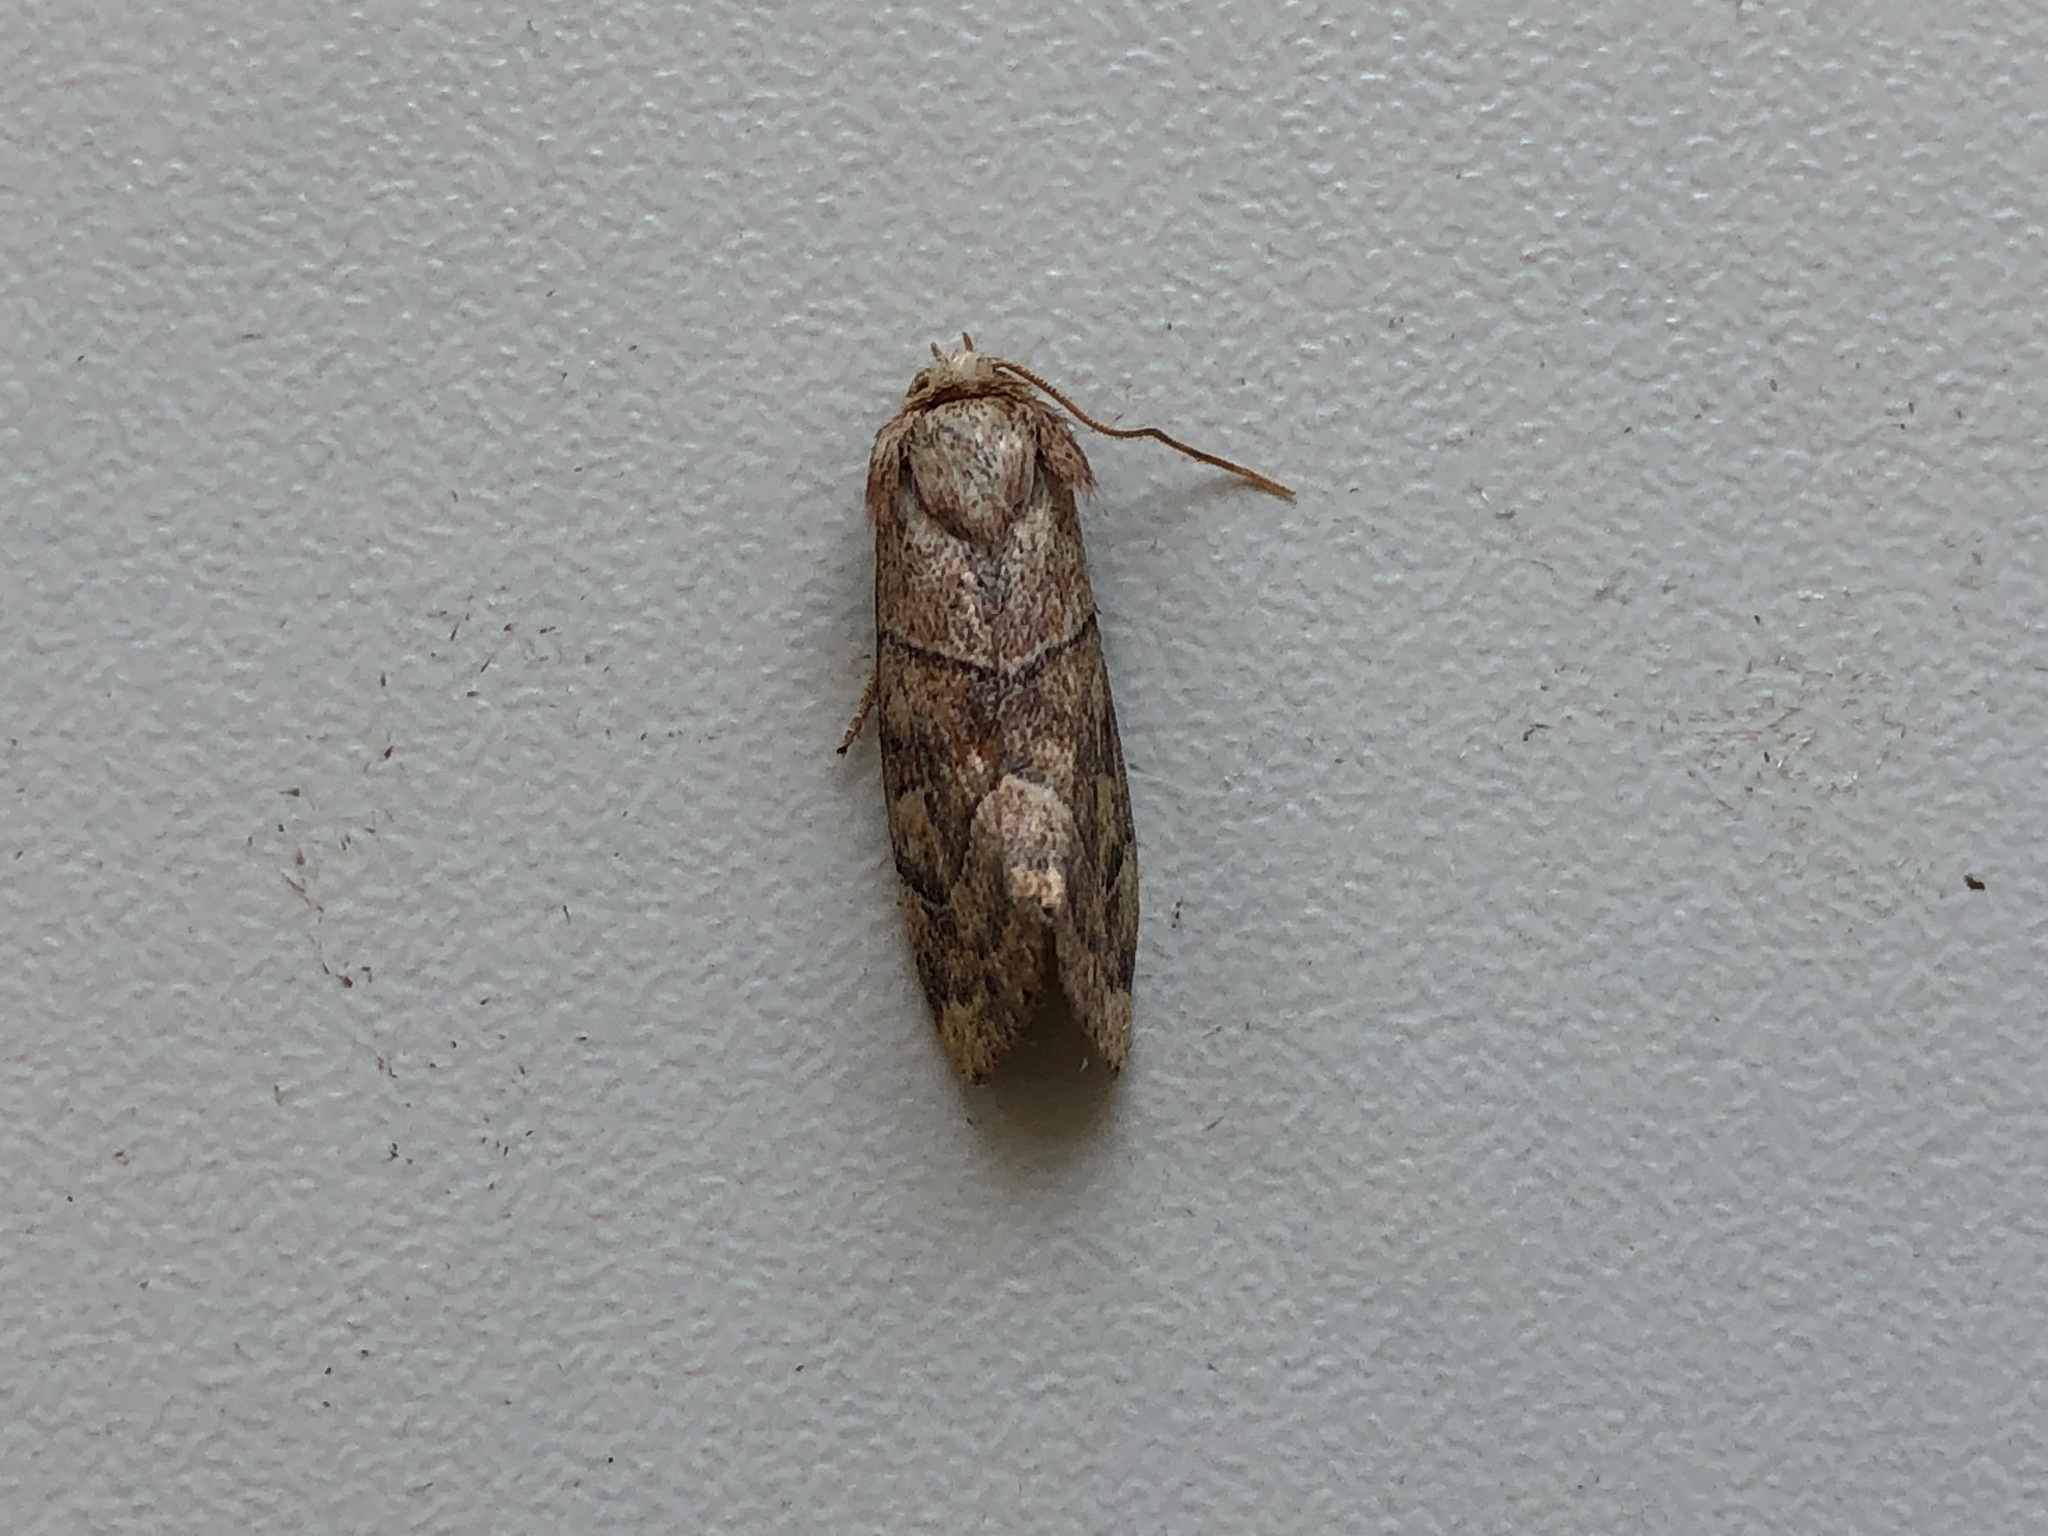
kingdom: Animalia
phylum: Arthropoda
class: Insecta
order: Lepidoptera
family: Noctuidae
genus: Cosmia
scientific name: Cosmia trapezina
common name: Dun-bar
